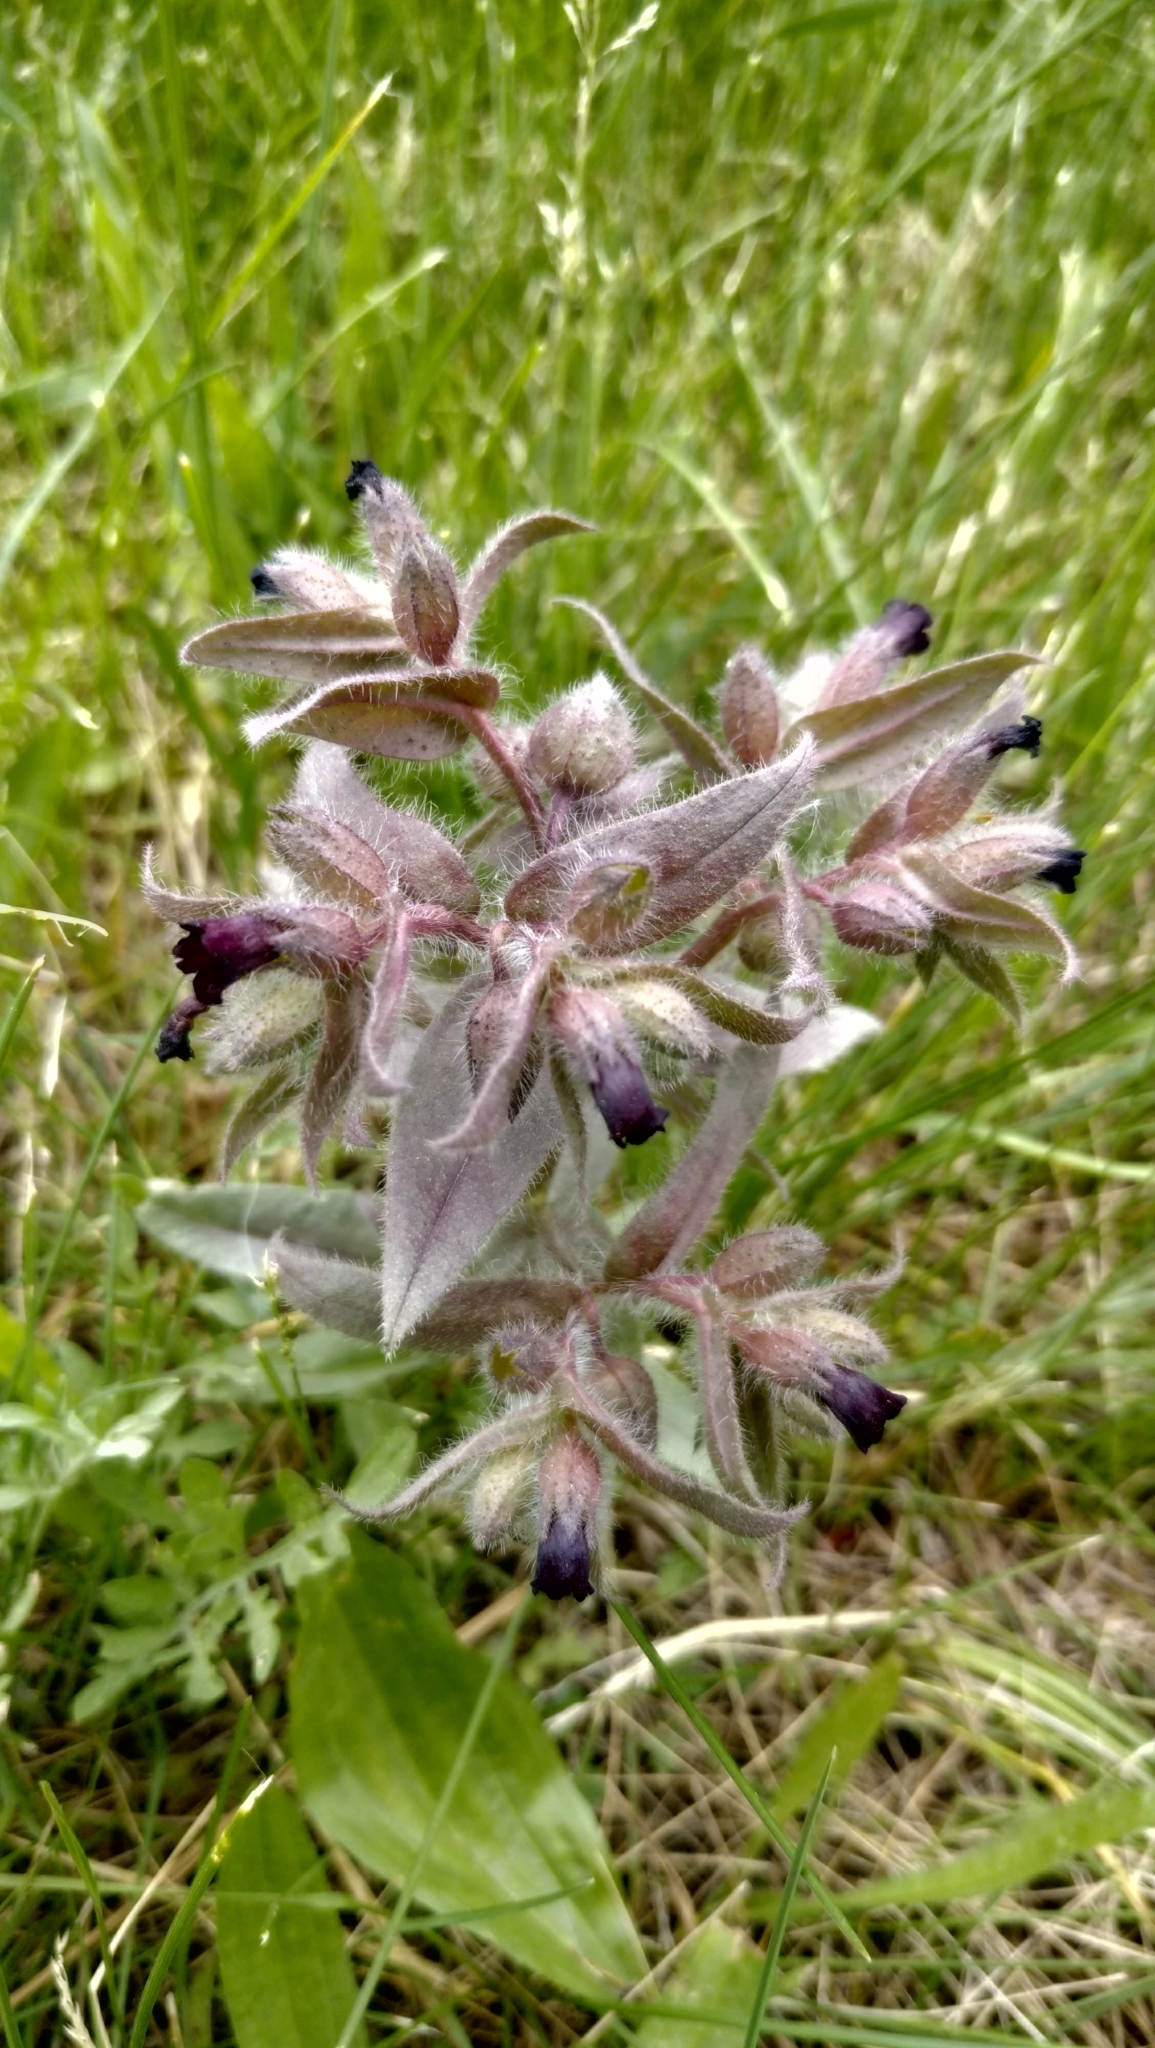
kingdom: Plantae
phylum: Tracheophyta
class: Magnoliopsida
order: Boraginales
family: Boraginaceae
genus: Nonea
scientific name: Nonea pulla
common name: Brown nonea
